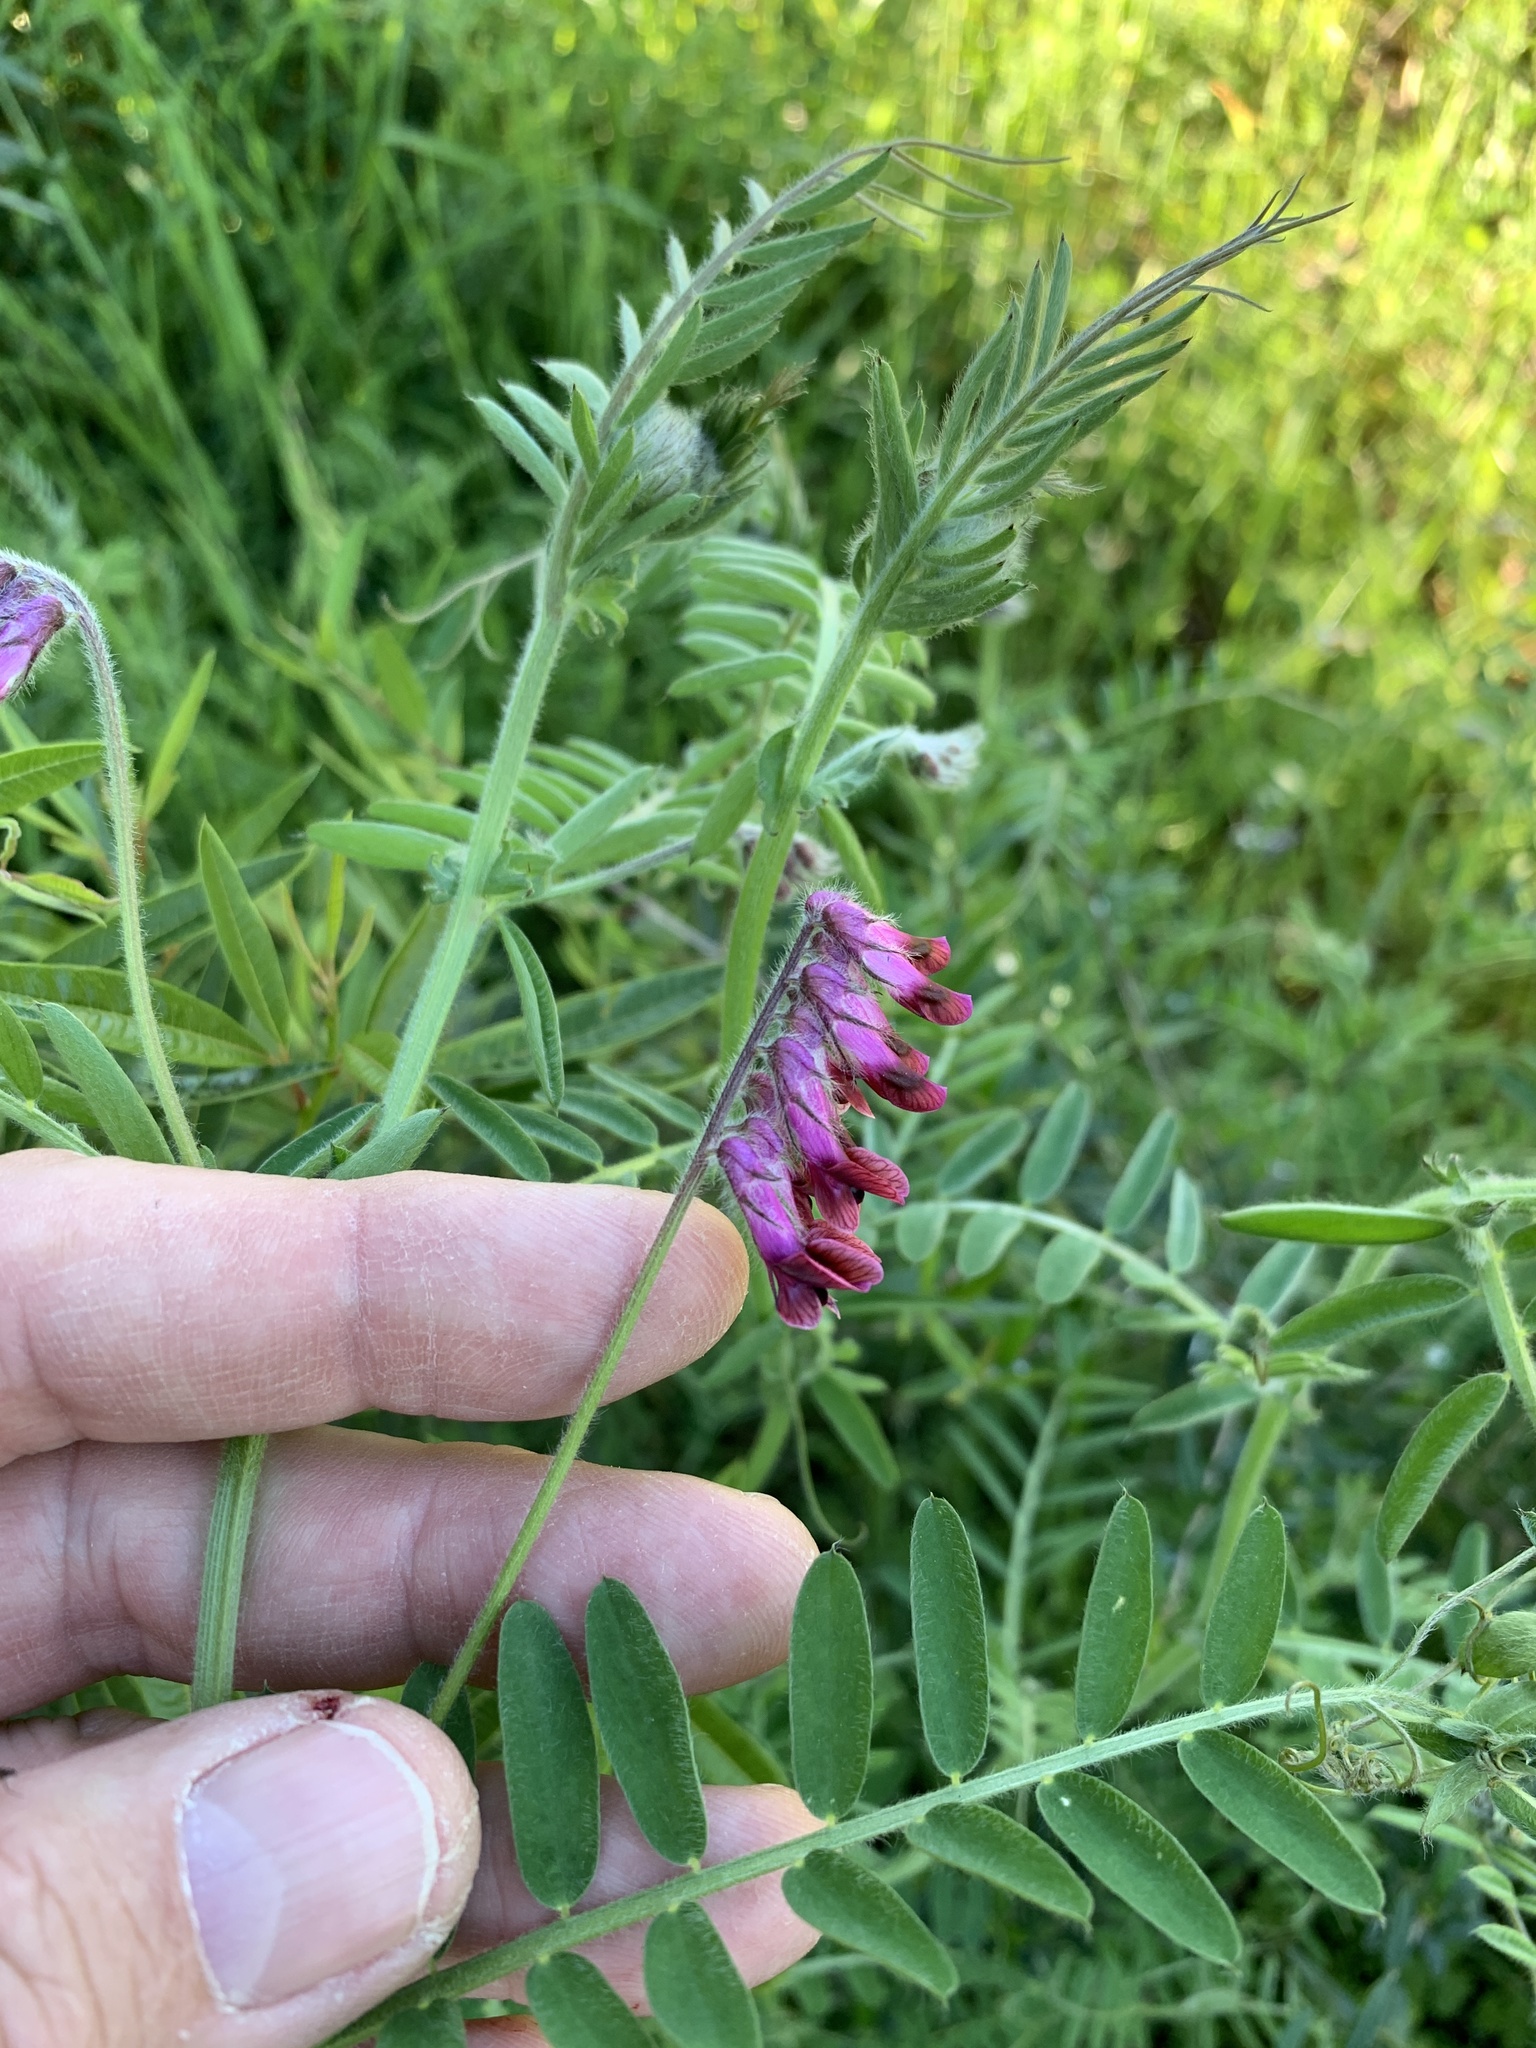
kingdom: Plantae
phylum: Tracheophyta
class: Magnoliopsida
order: Fabales
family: Fabaceae
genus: Vicia
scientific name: Vicia benghalensis
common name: Purple vetch
